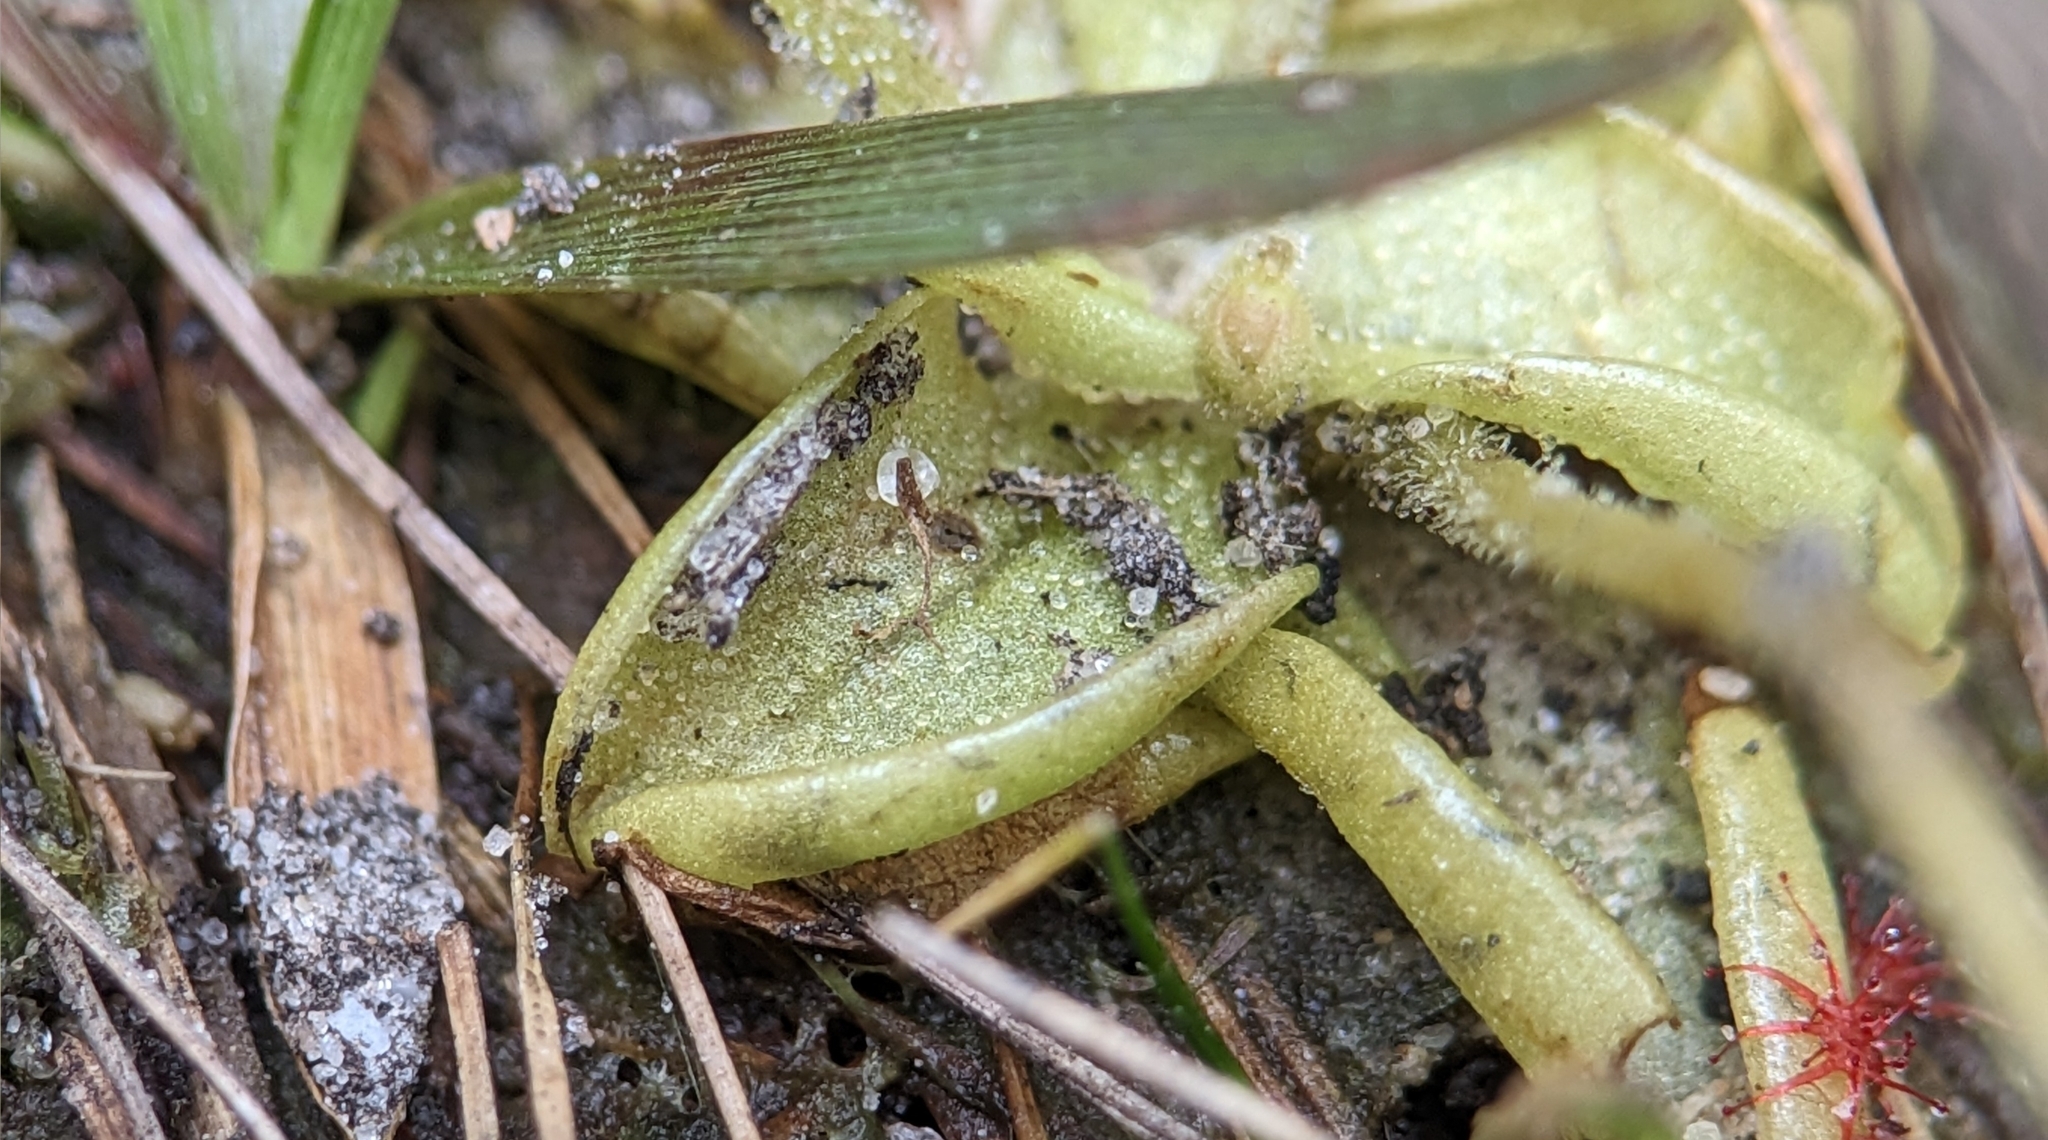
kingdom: Plantae
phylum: Tracheophyta
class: Magnoliopsida
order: Lamiales
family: Lentibulariaceae
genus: Pinguicula
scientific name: Pinguicula pumila
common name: Small butterwort
